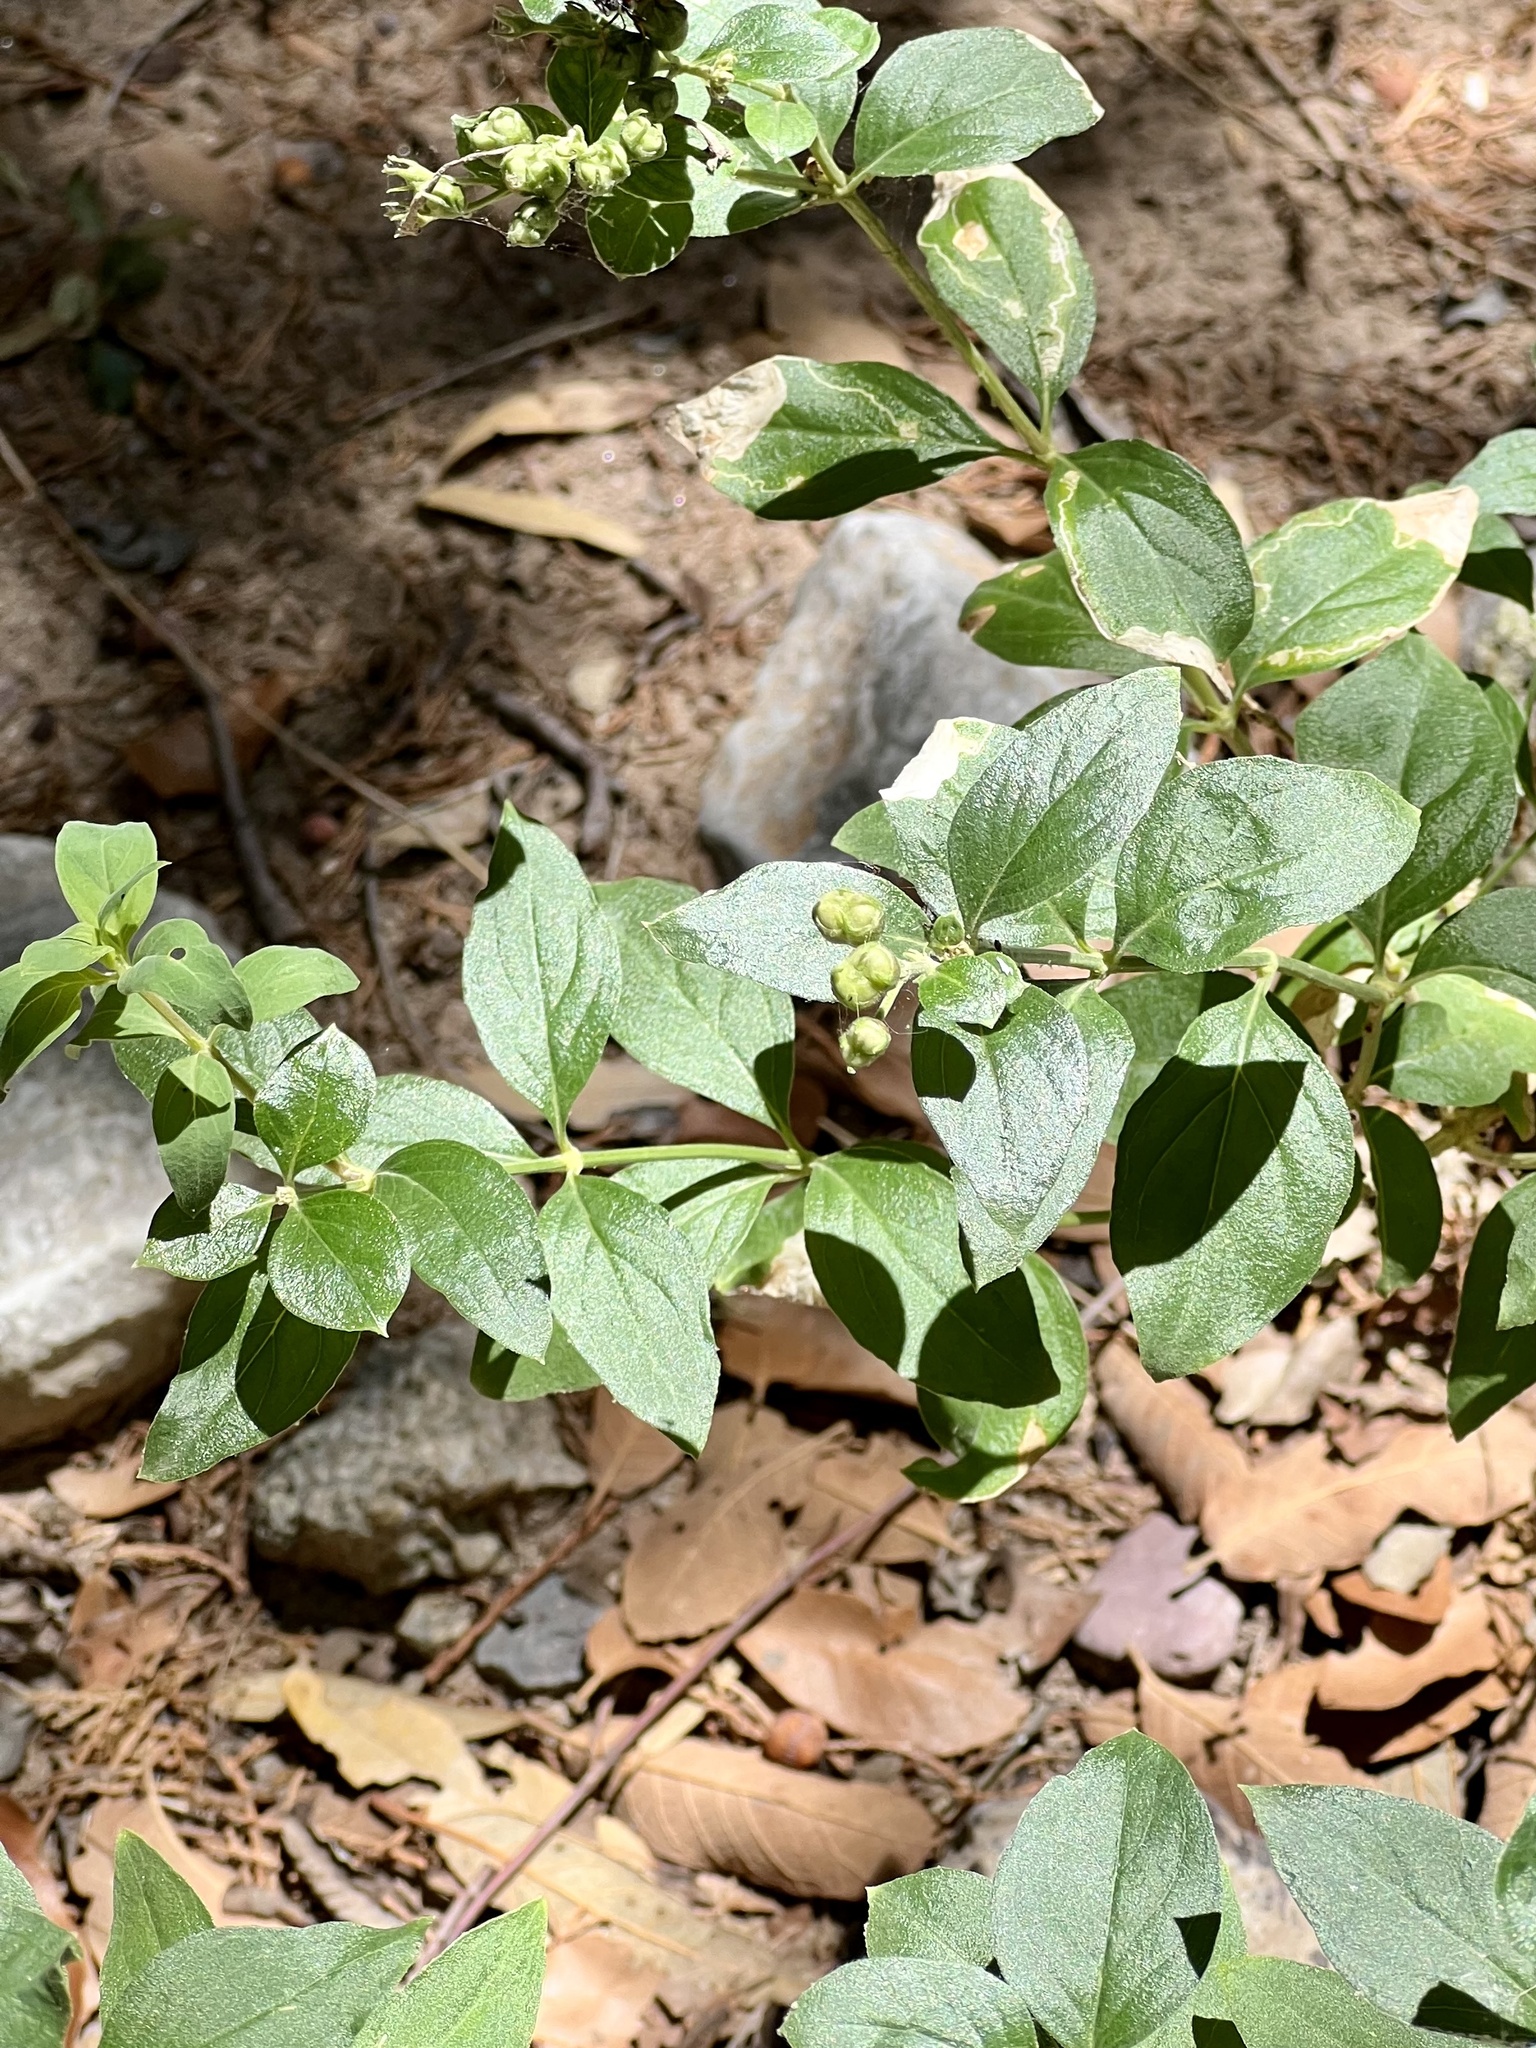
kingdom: Plantae
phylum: Tracheophyta
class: Magnoliopsida
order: Gentianales
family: Rubiaceae
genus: Bouvardia
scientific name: Bouvardia ternifolia
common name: Scarlet bouvardia
